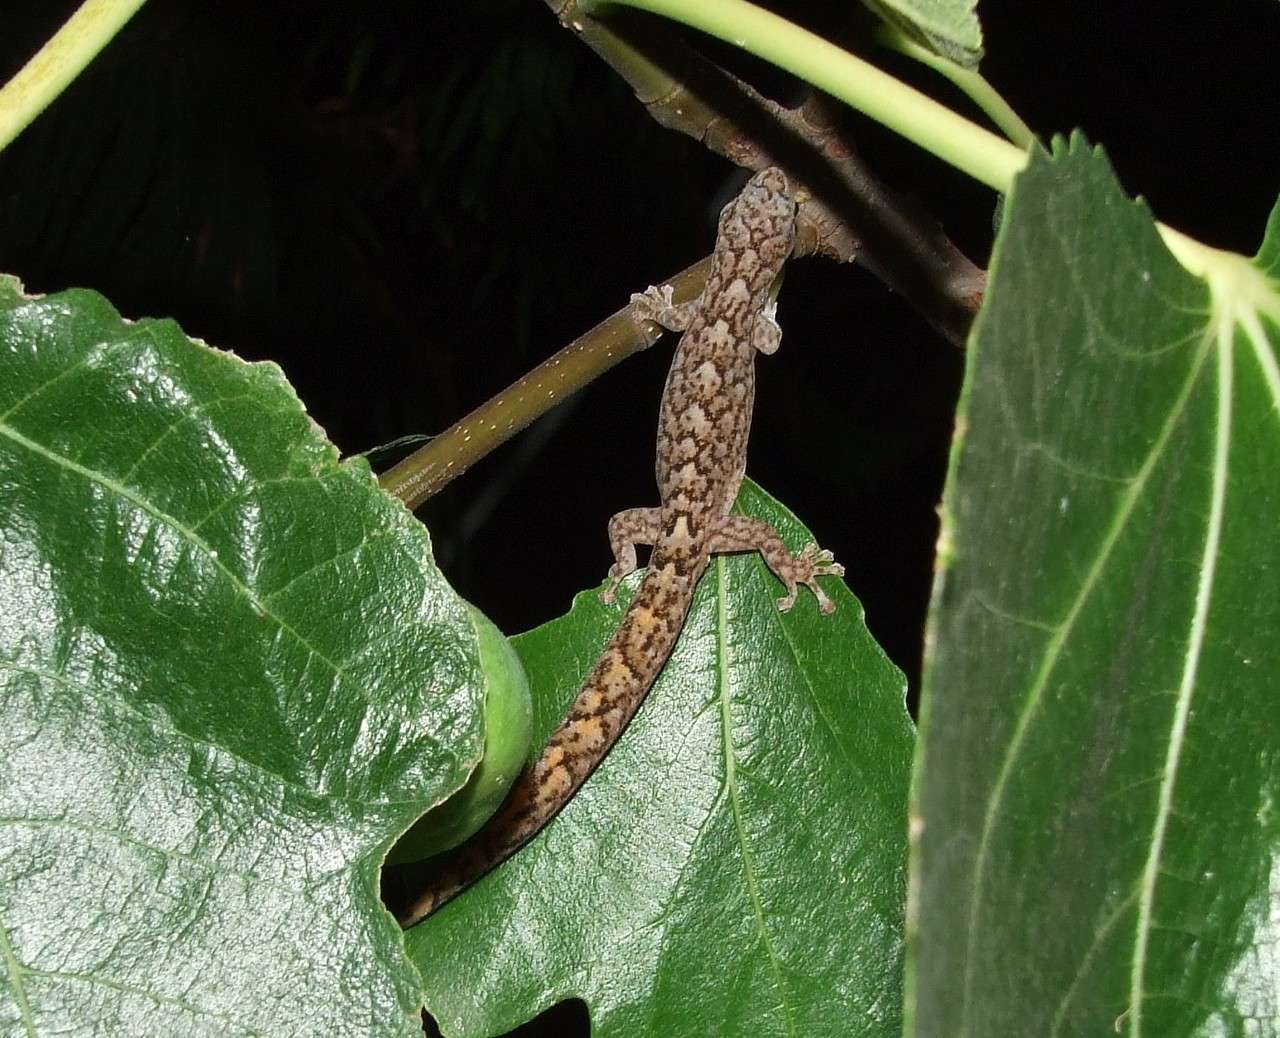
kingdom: Animalia
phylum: Chordata
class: Squamata
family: Gekkonidae
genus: Christinus
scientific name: Christinus marmoratus
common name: Marbled gecko
